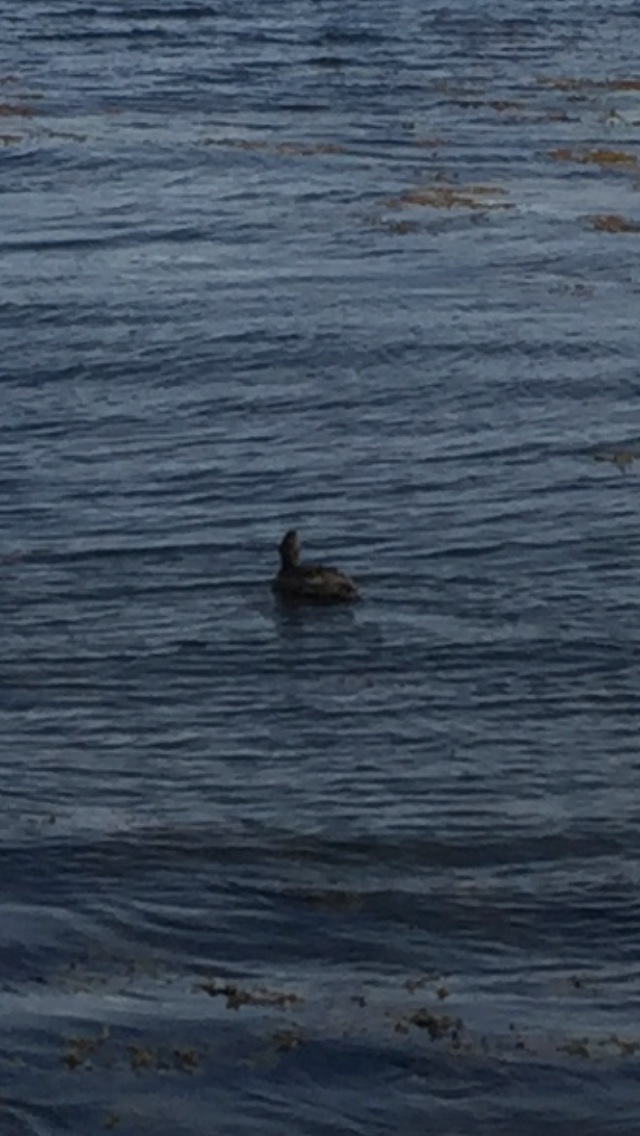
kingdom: Animalia
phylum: Chordata
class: Aves
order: Anseriformes
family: Anatidae
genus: Somateria
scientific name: Somateria mollissima
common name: Common eider
